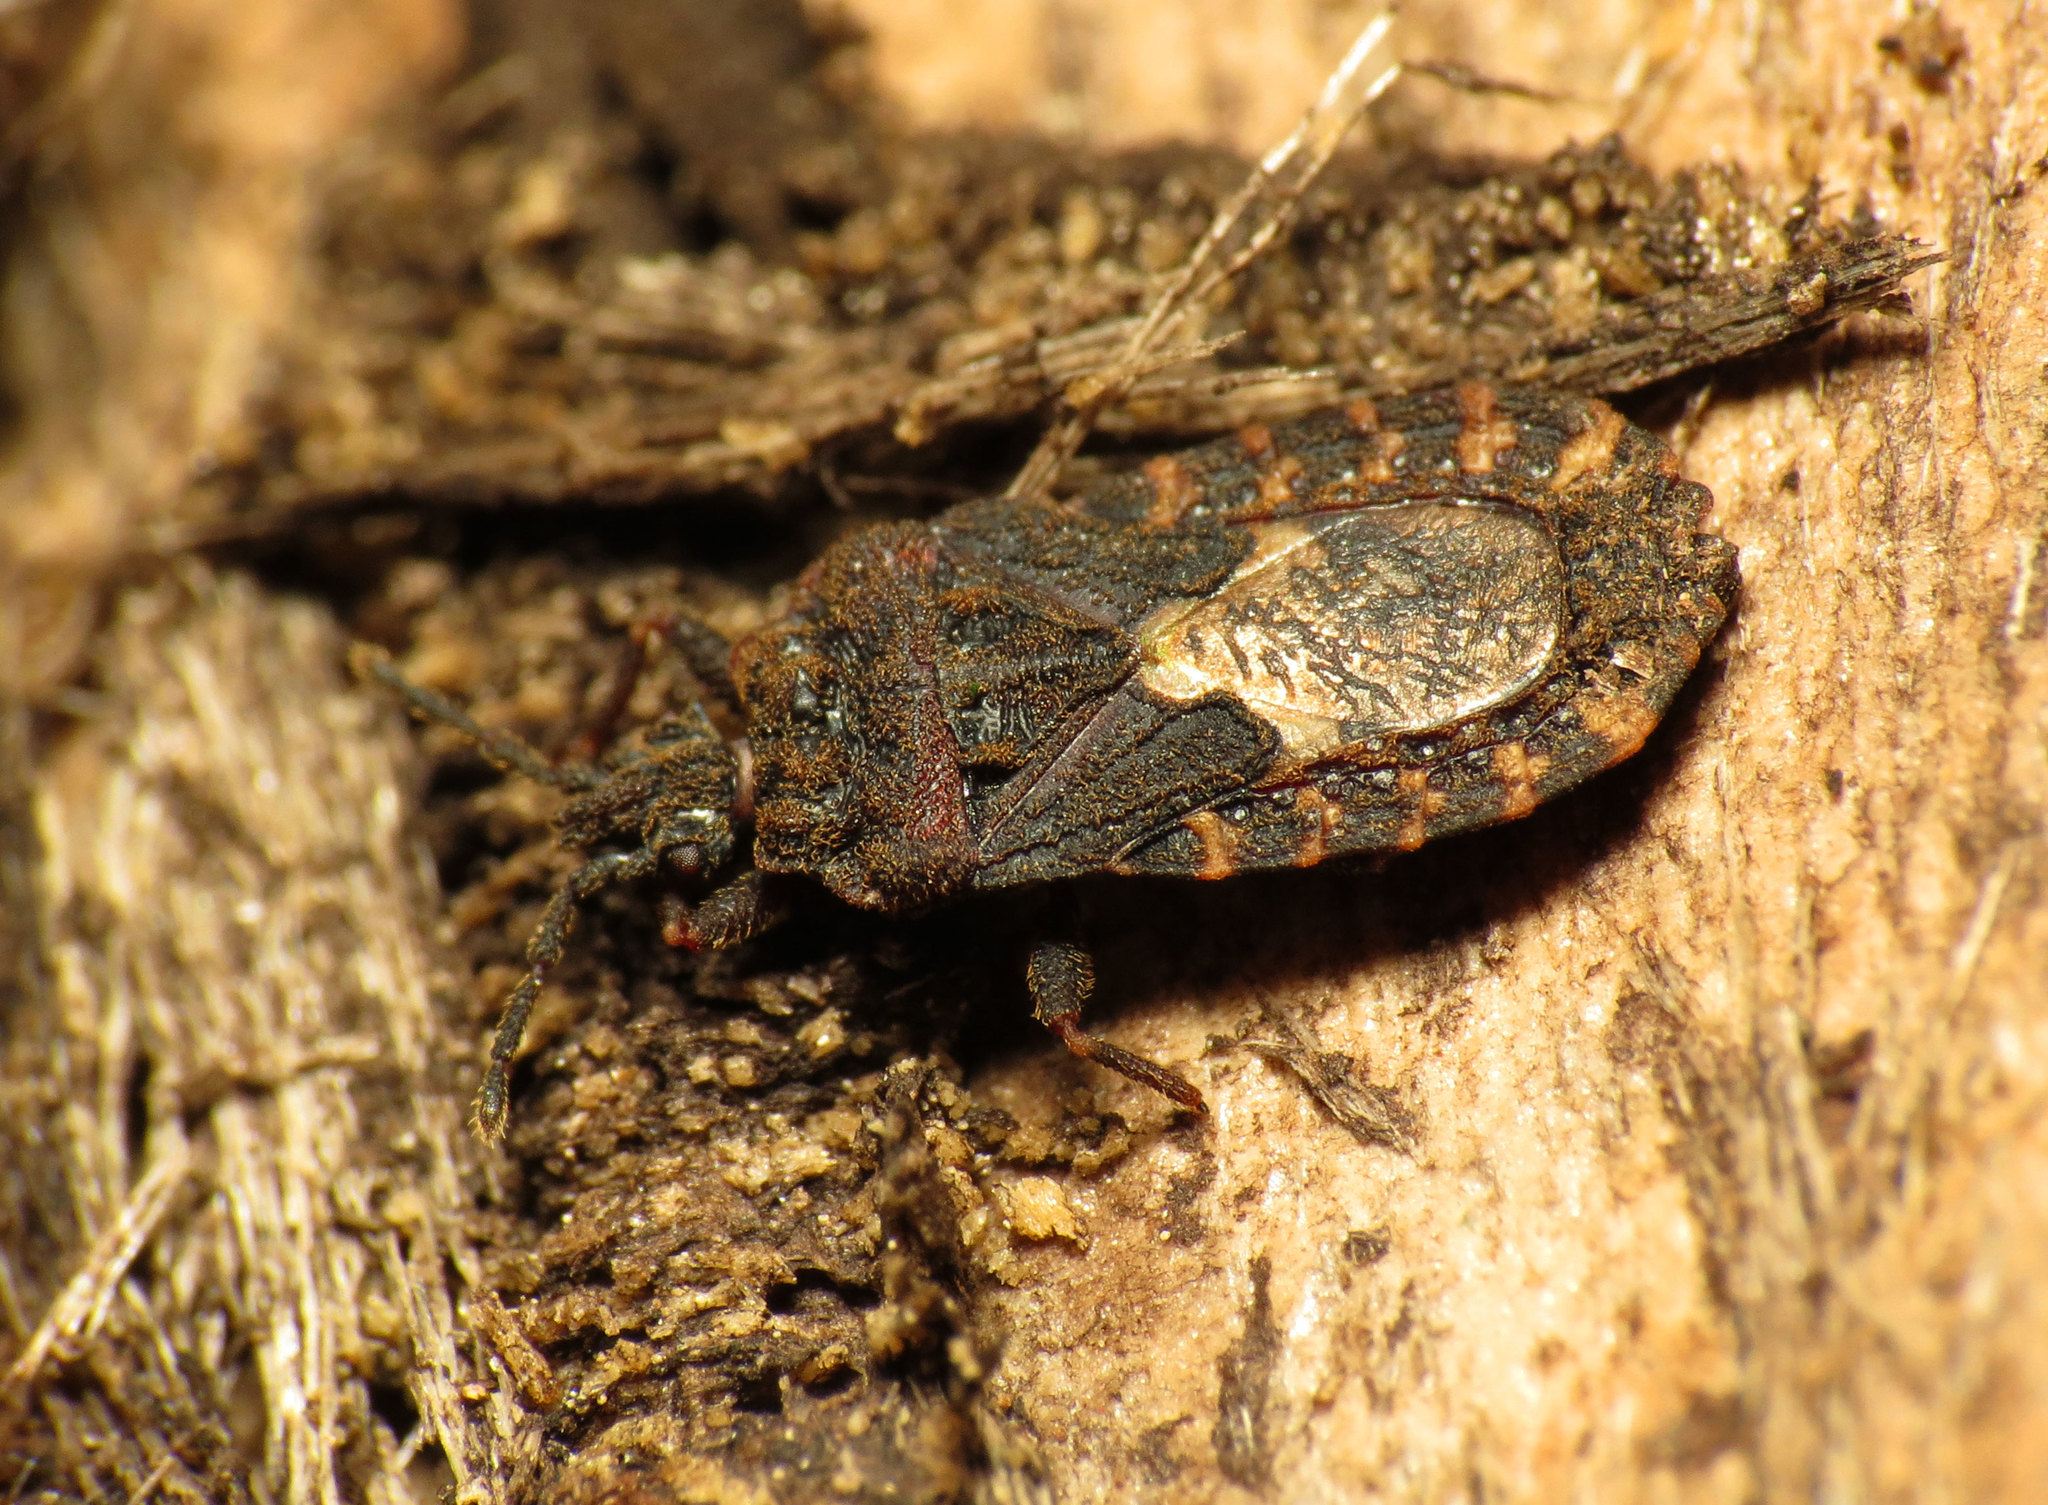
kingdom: Animalia
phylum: Arthropoda
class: Insecta
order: Hemiptera
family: Aradidae
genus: Mezira
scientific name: Mezira
